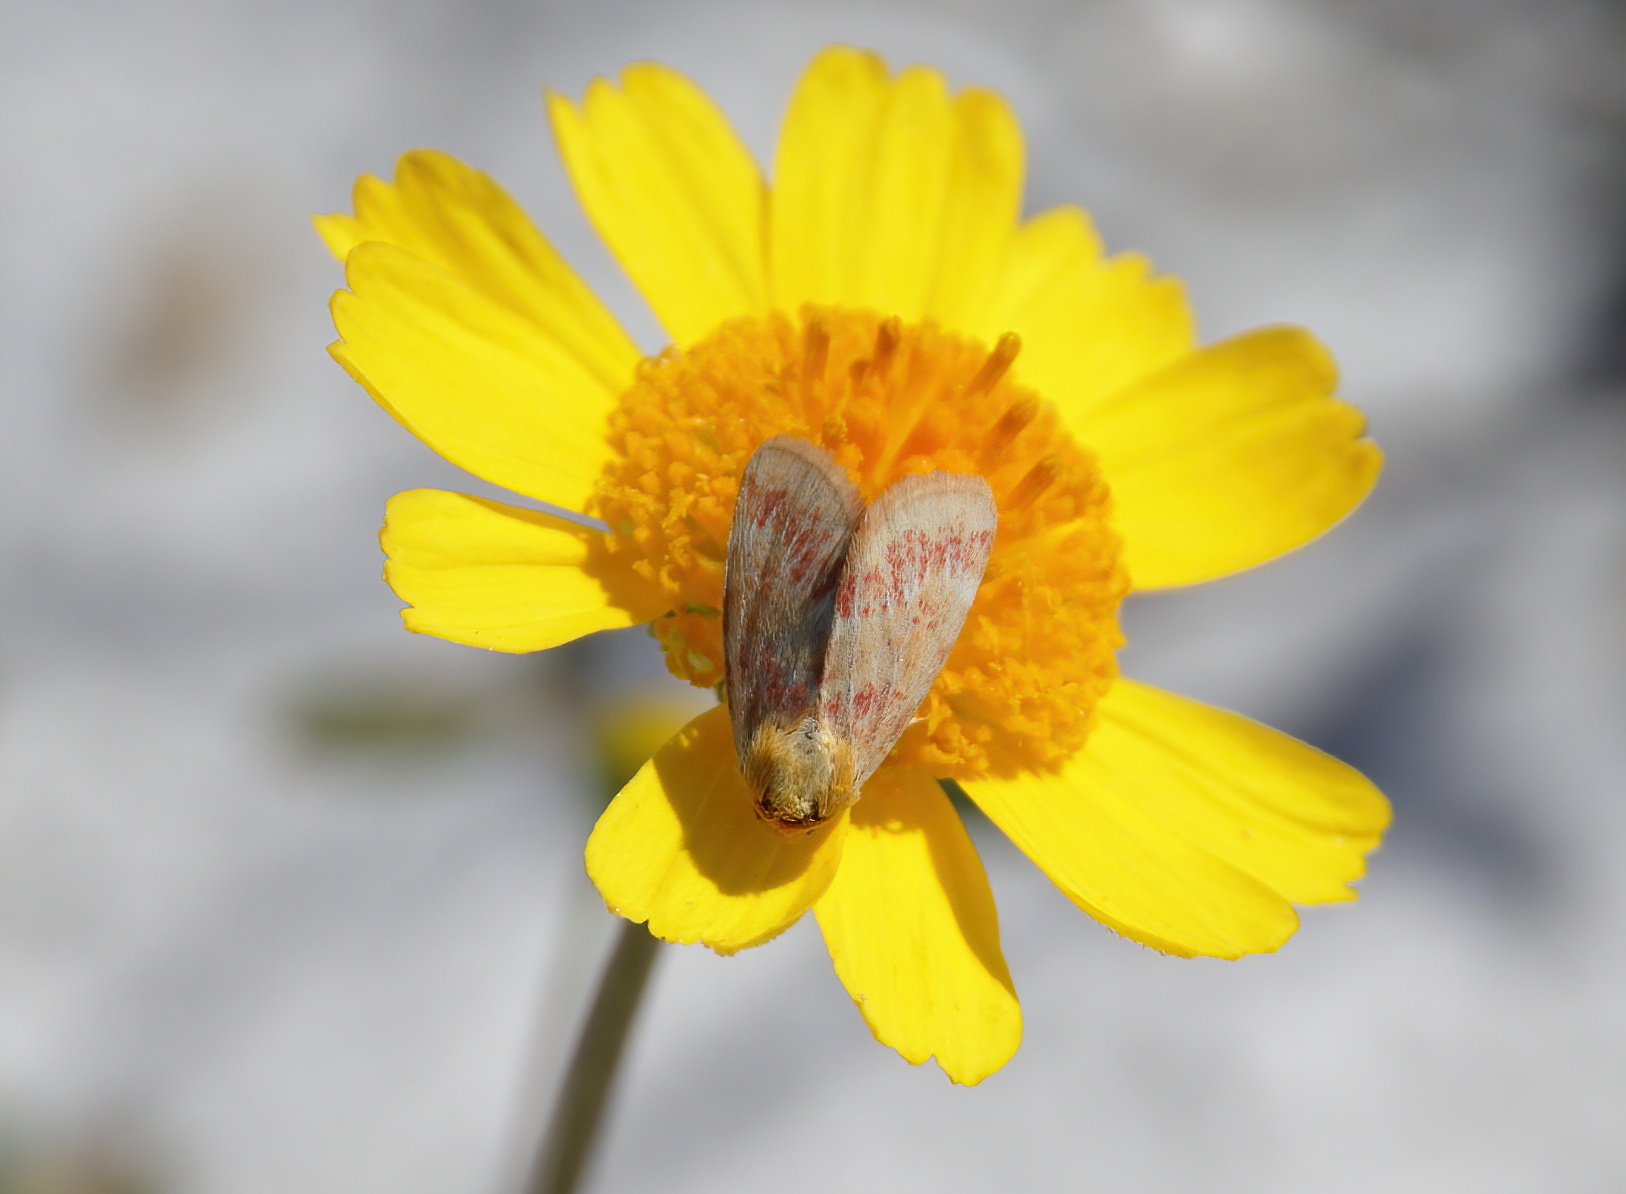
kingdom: Animalia
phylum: Arthropoda
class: Insecta
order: Lepidoptera
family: Noctuidae
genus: Schinia
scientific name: Schinia fulleri
